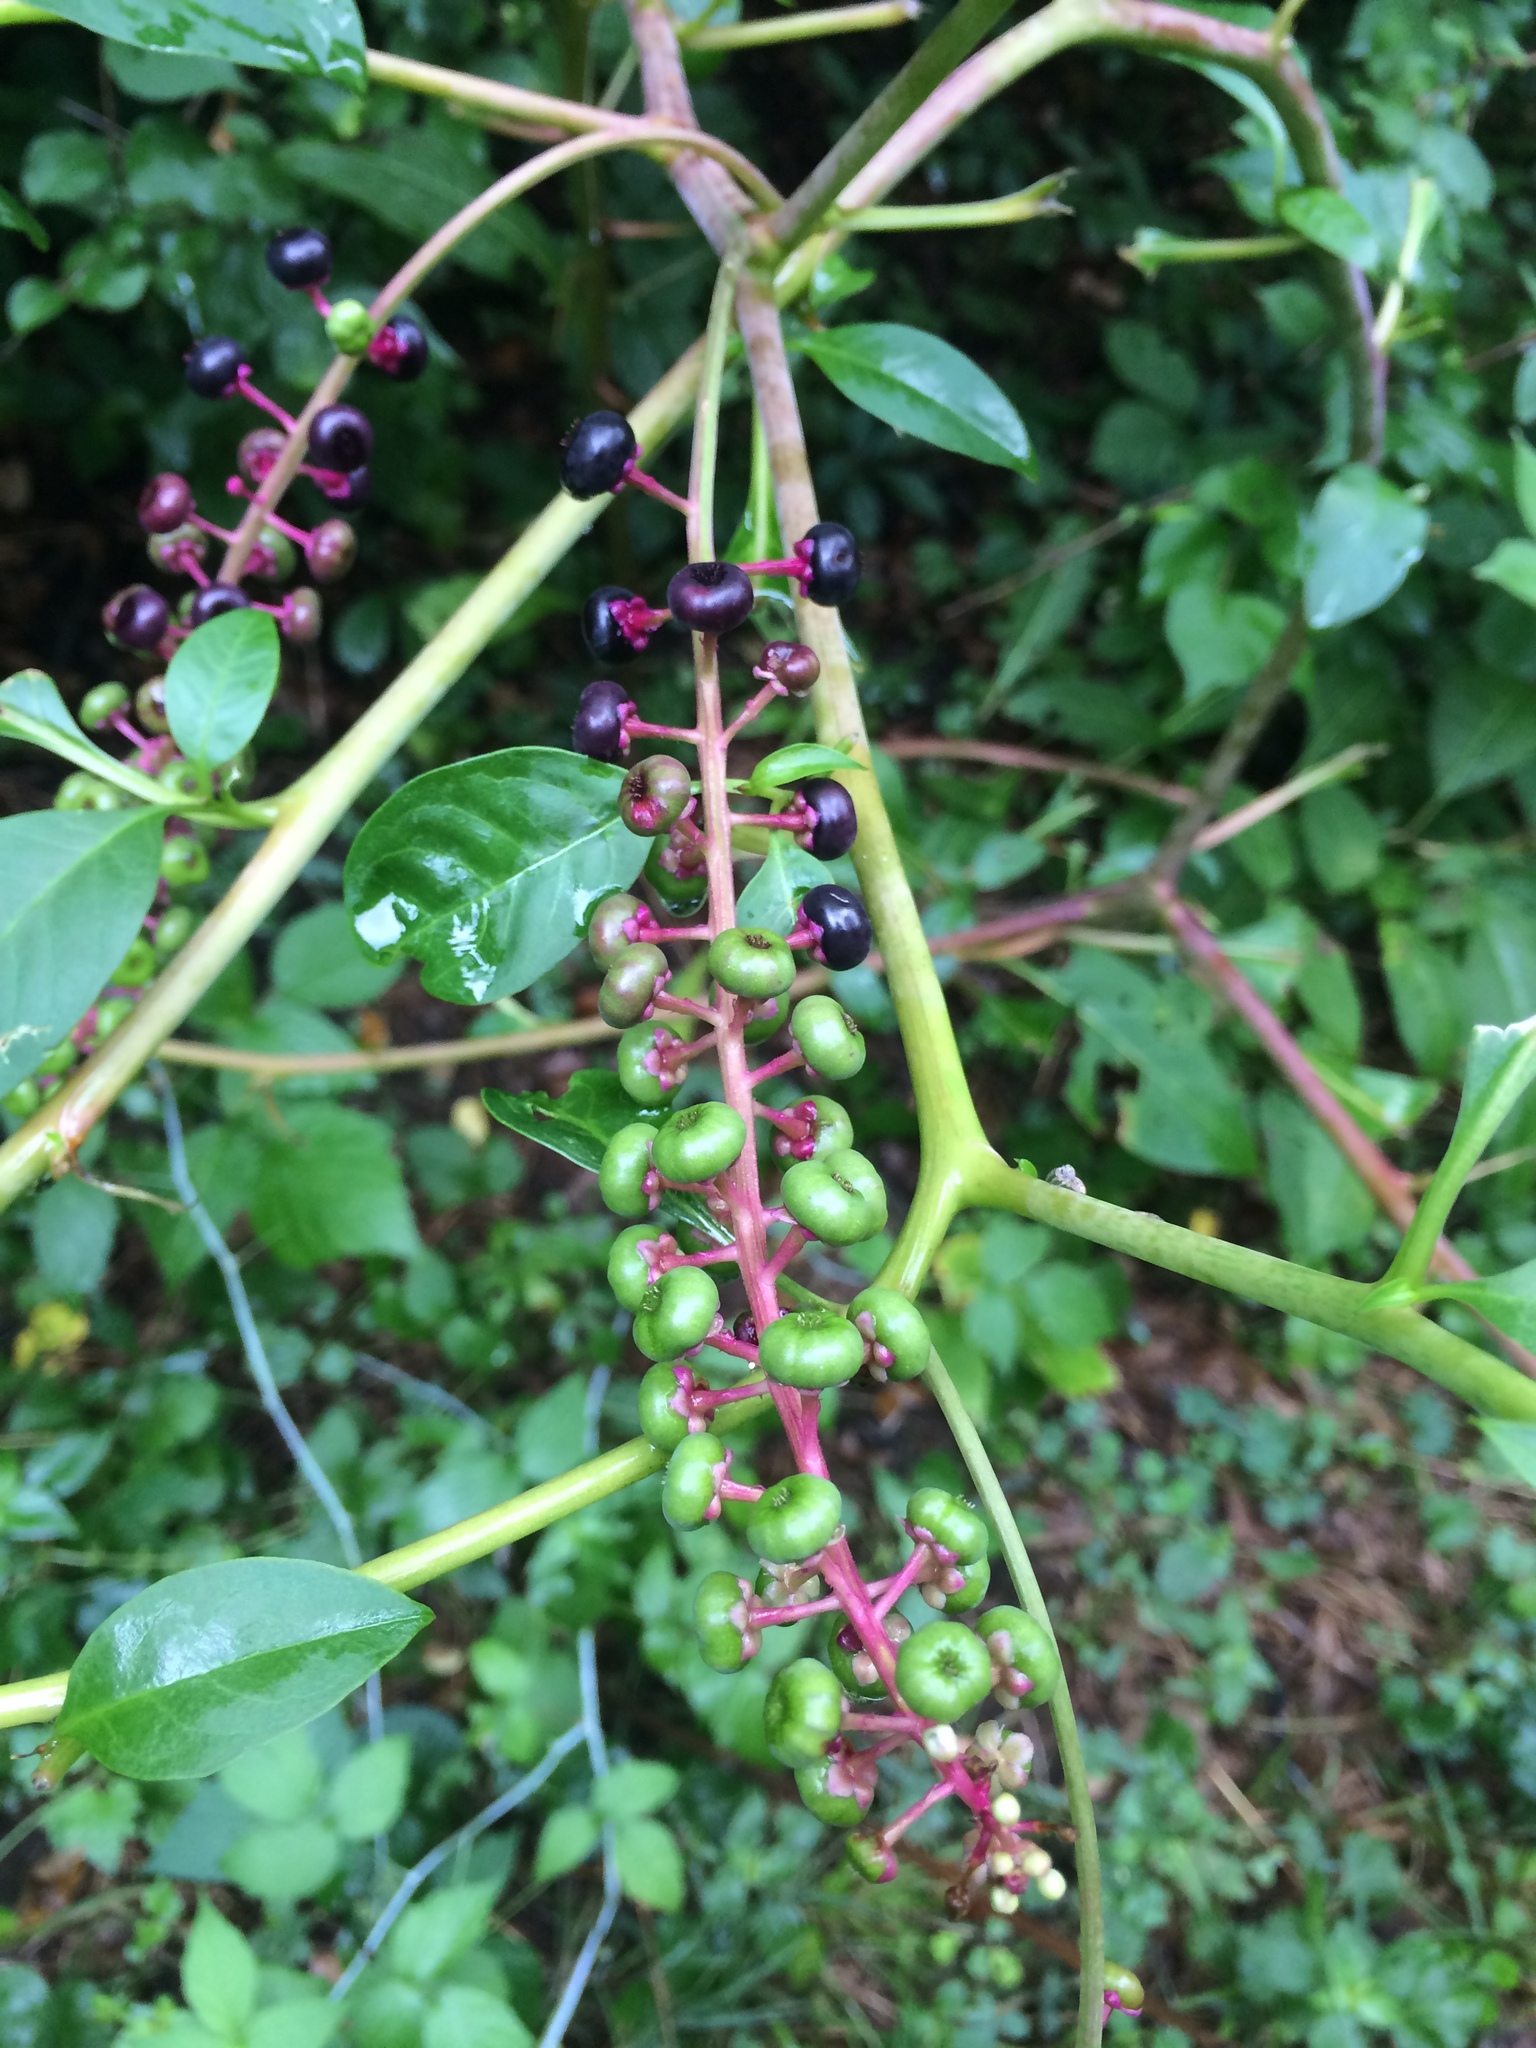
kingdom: Plantae
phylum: Tracheophyta
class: Magnoliopsida
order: Caryophyllales
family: Phytolaccaceae
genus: Phytolacca
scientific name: Phytolacca americana
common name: American pokeweed
